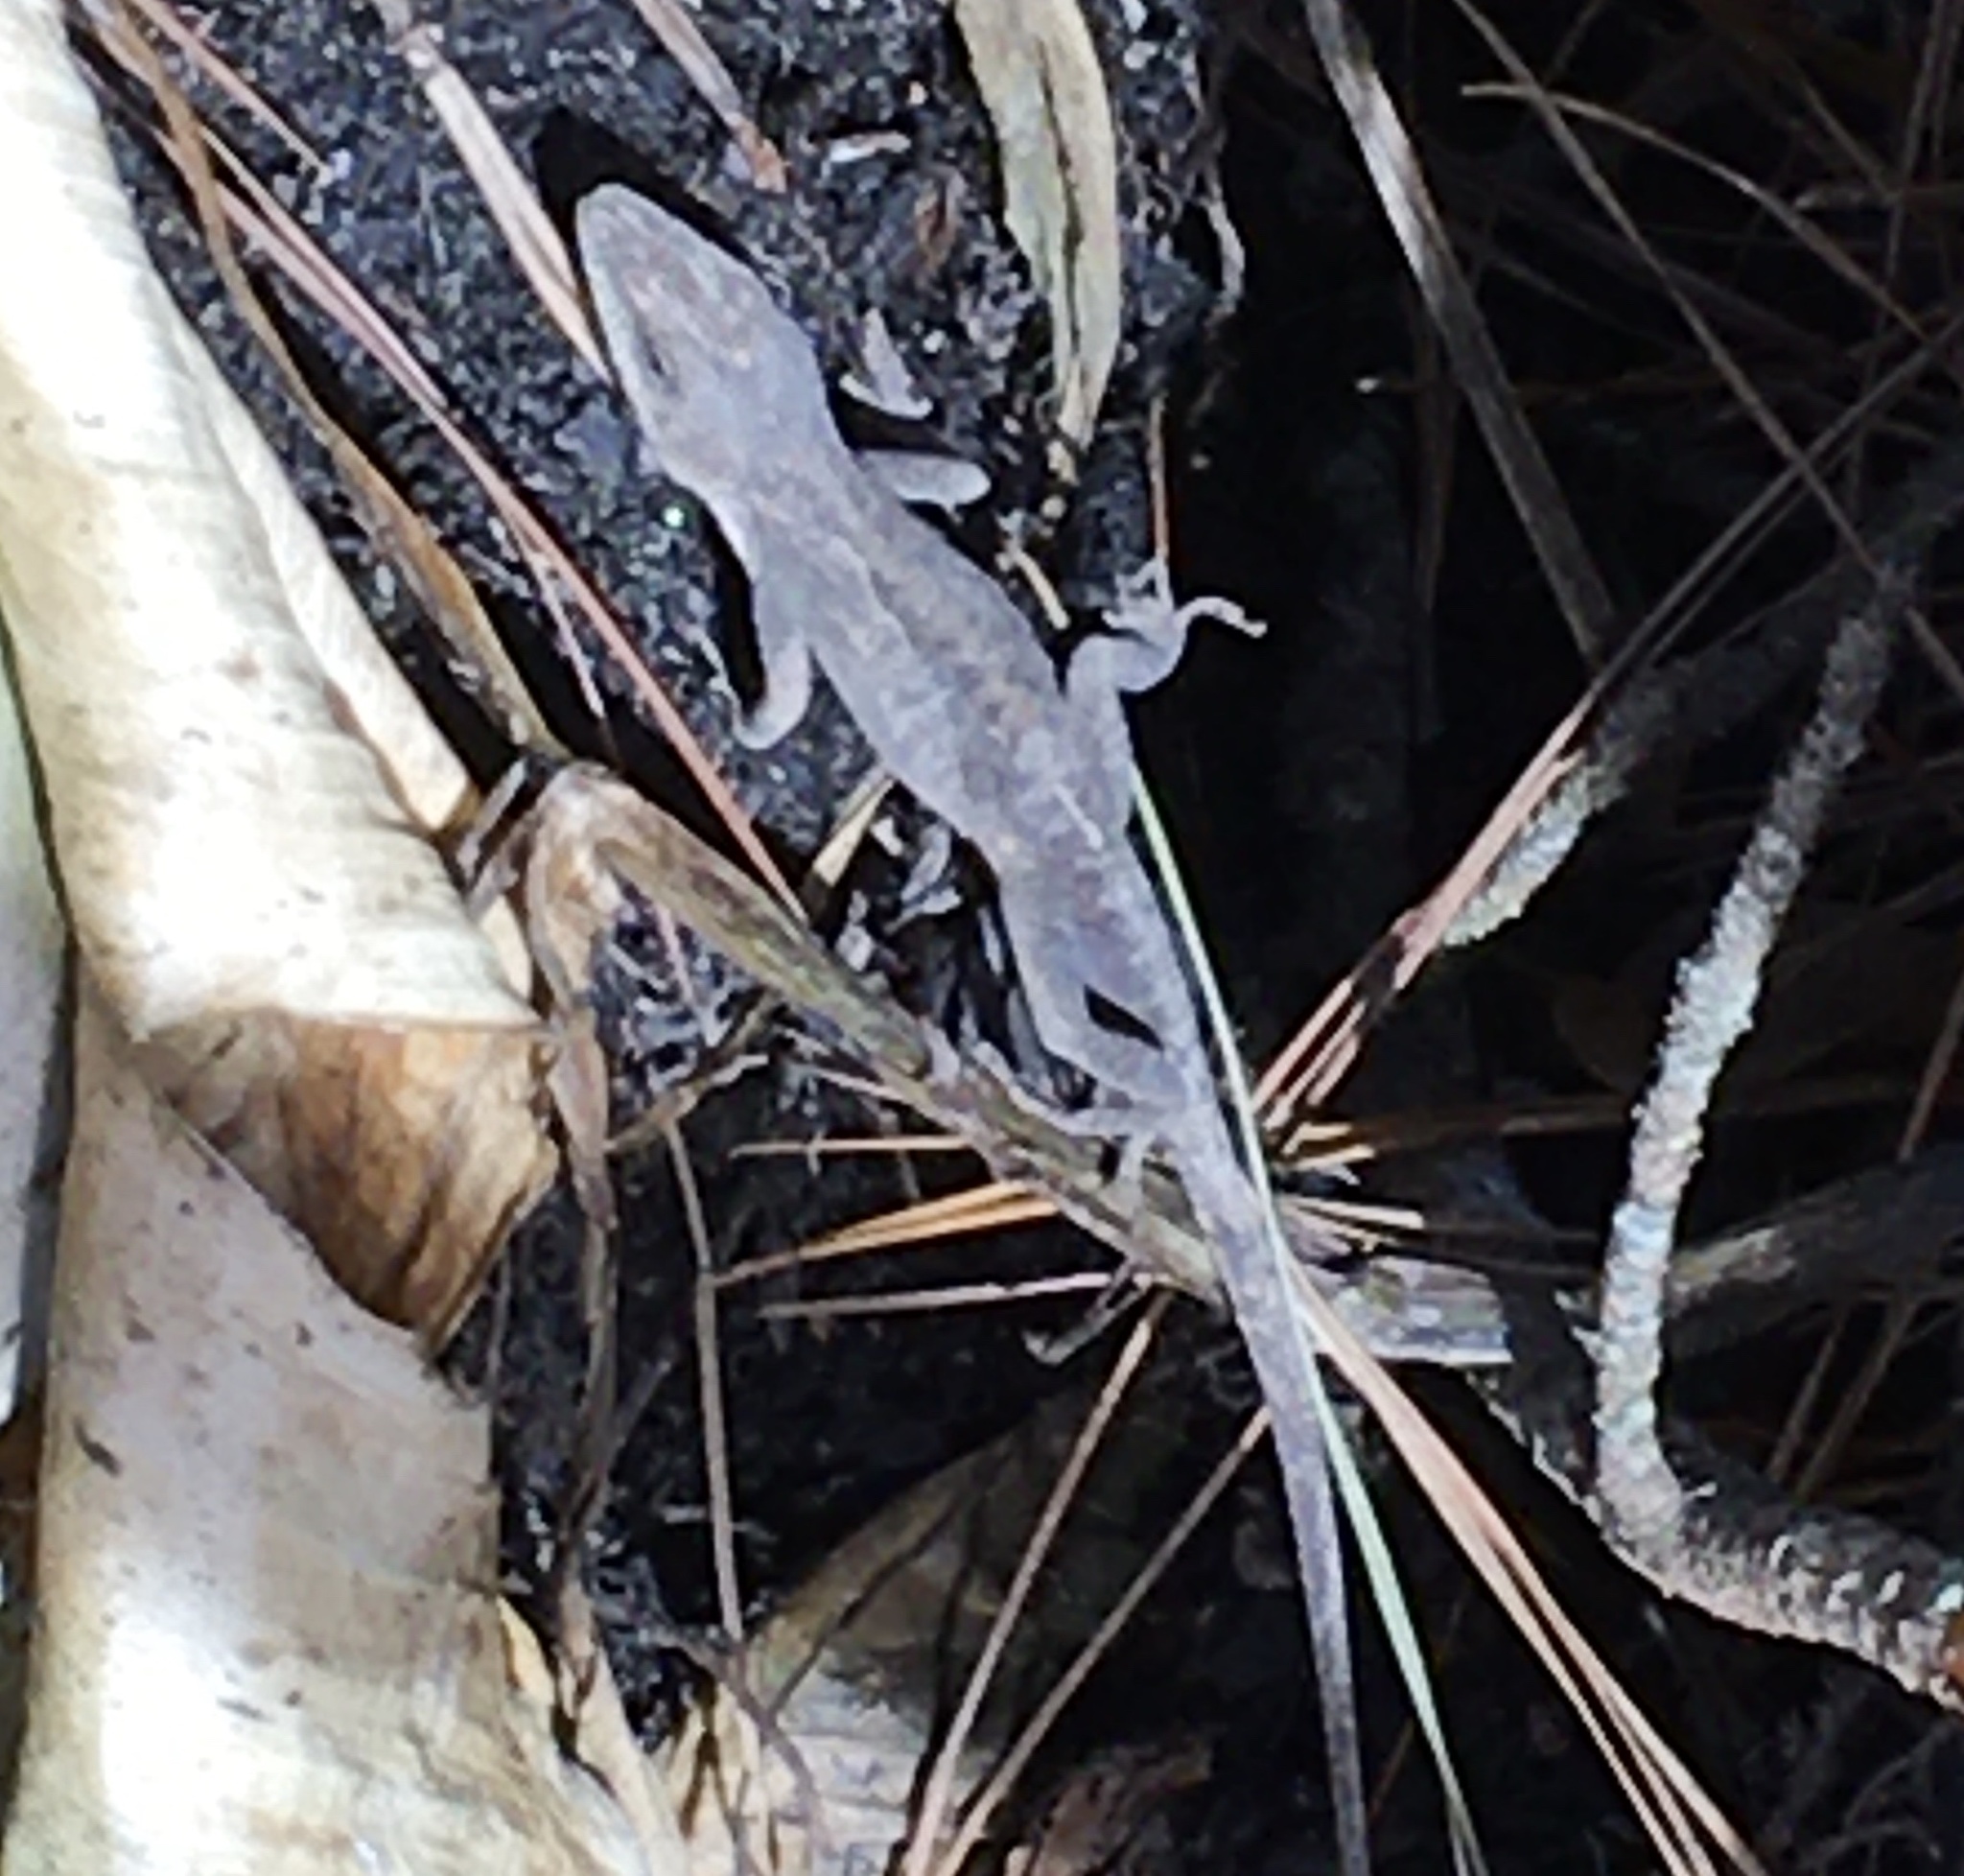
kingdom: Animalia
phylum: Chordata
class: Squamata
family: Dactyloidae
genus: Anolis
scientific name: Anolis carolinensis
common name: Green anole
